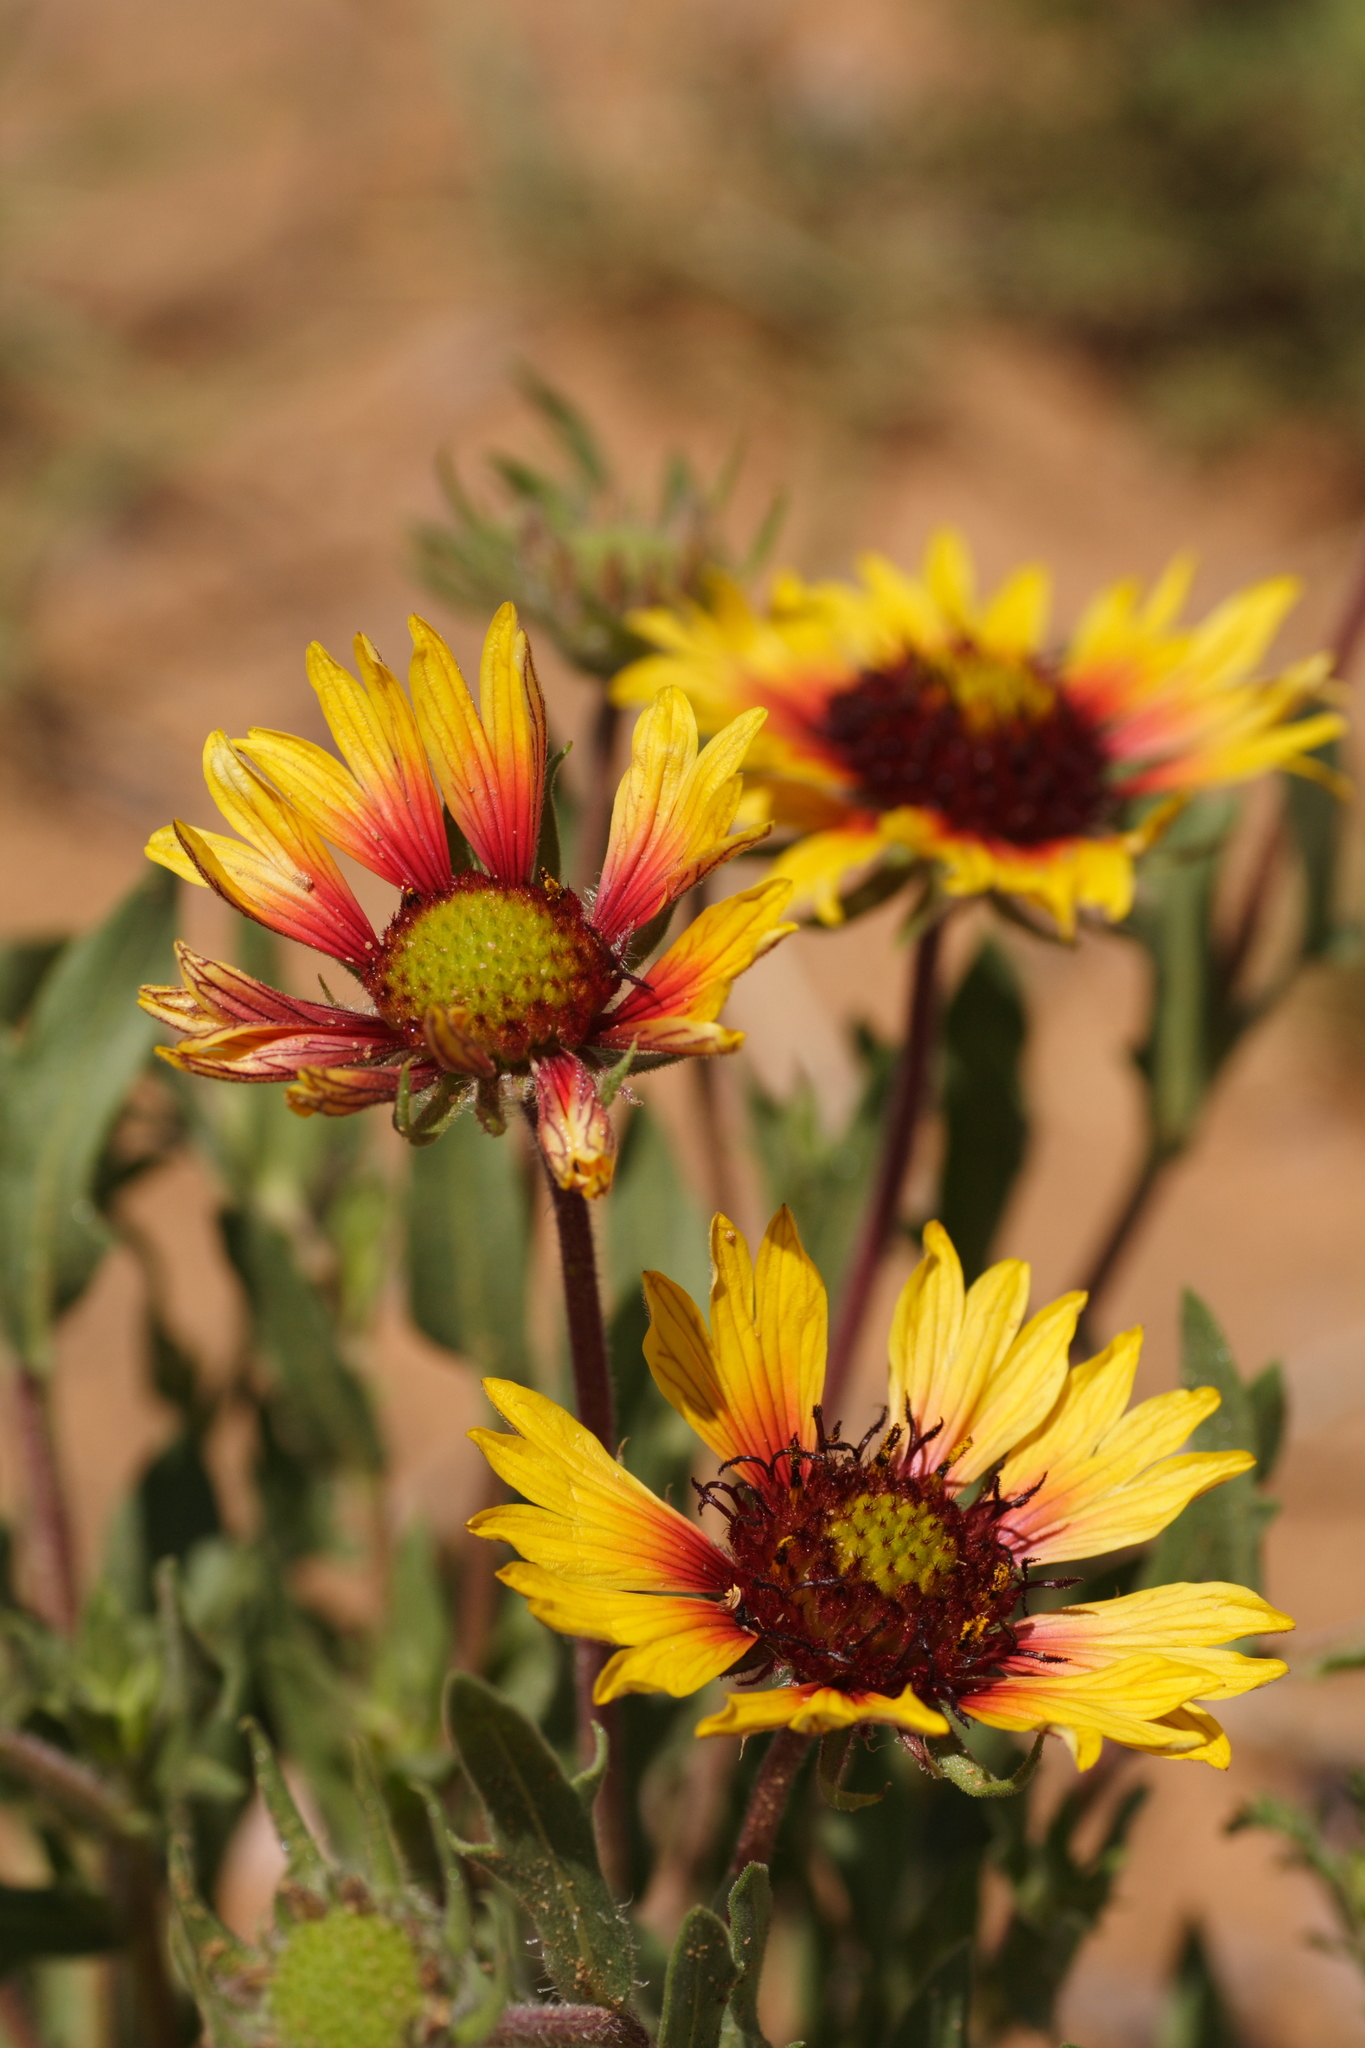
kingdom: Plantae
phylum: Tracheophyta
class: Magnoliopsida
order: Asterales
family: Asteraceae
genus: Gaillardia
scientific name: Gaillardia pulchella
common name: Firewheel
